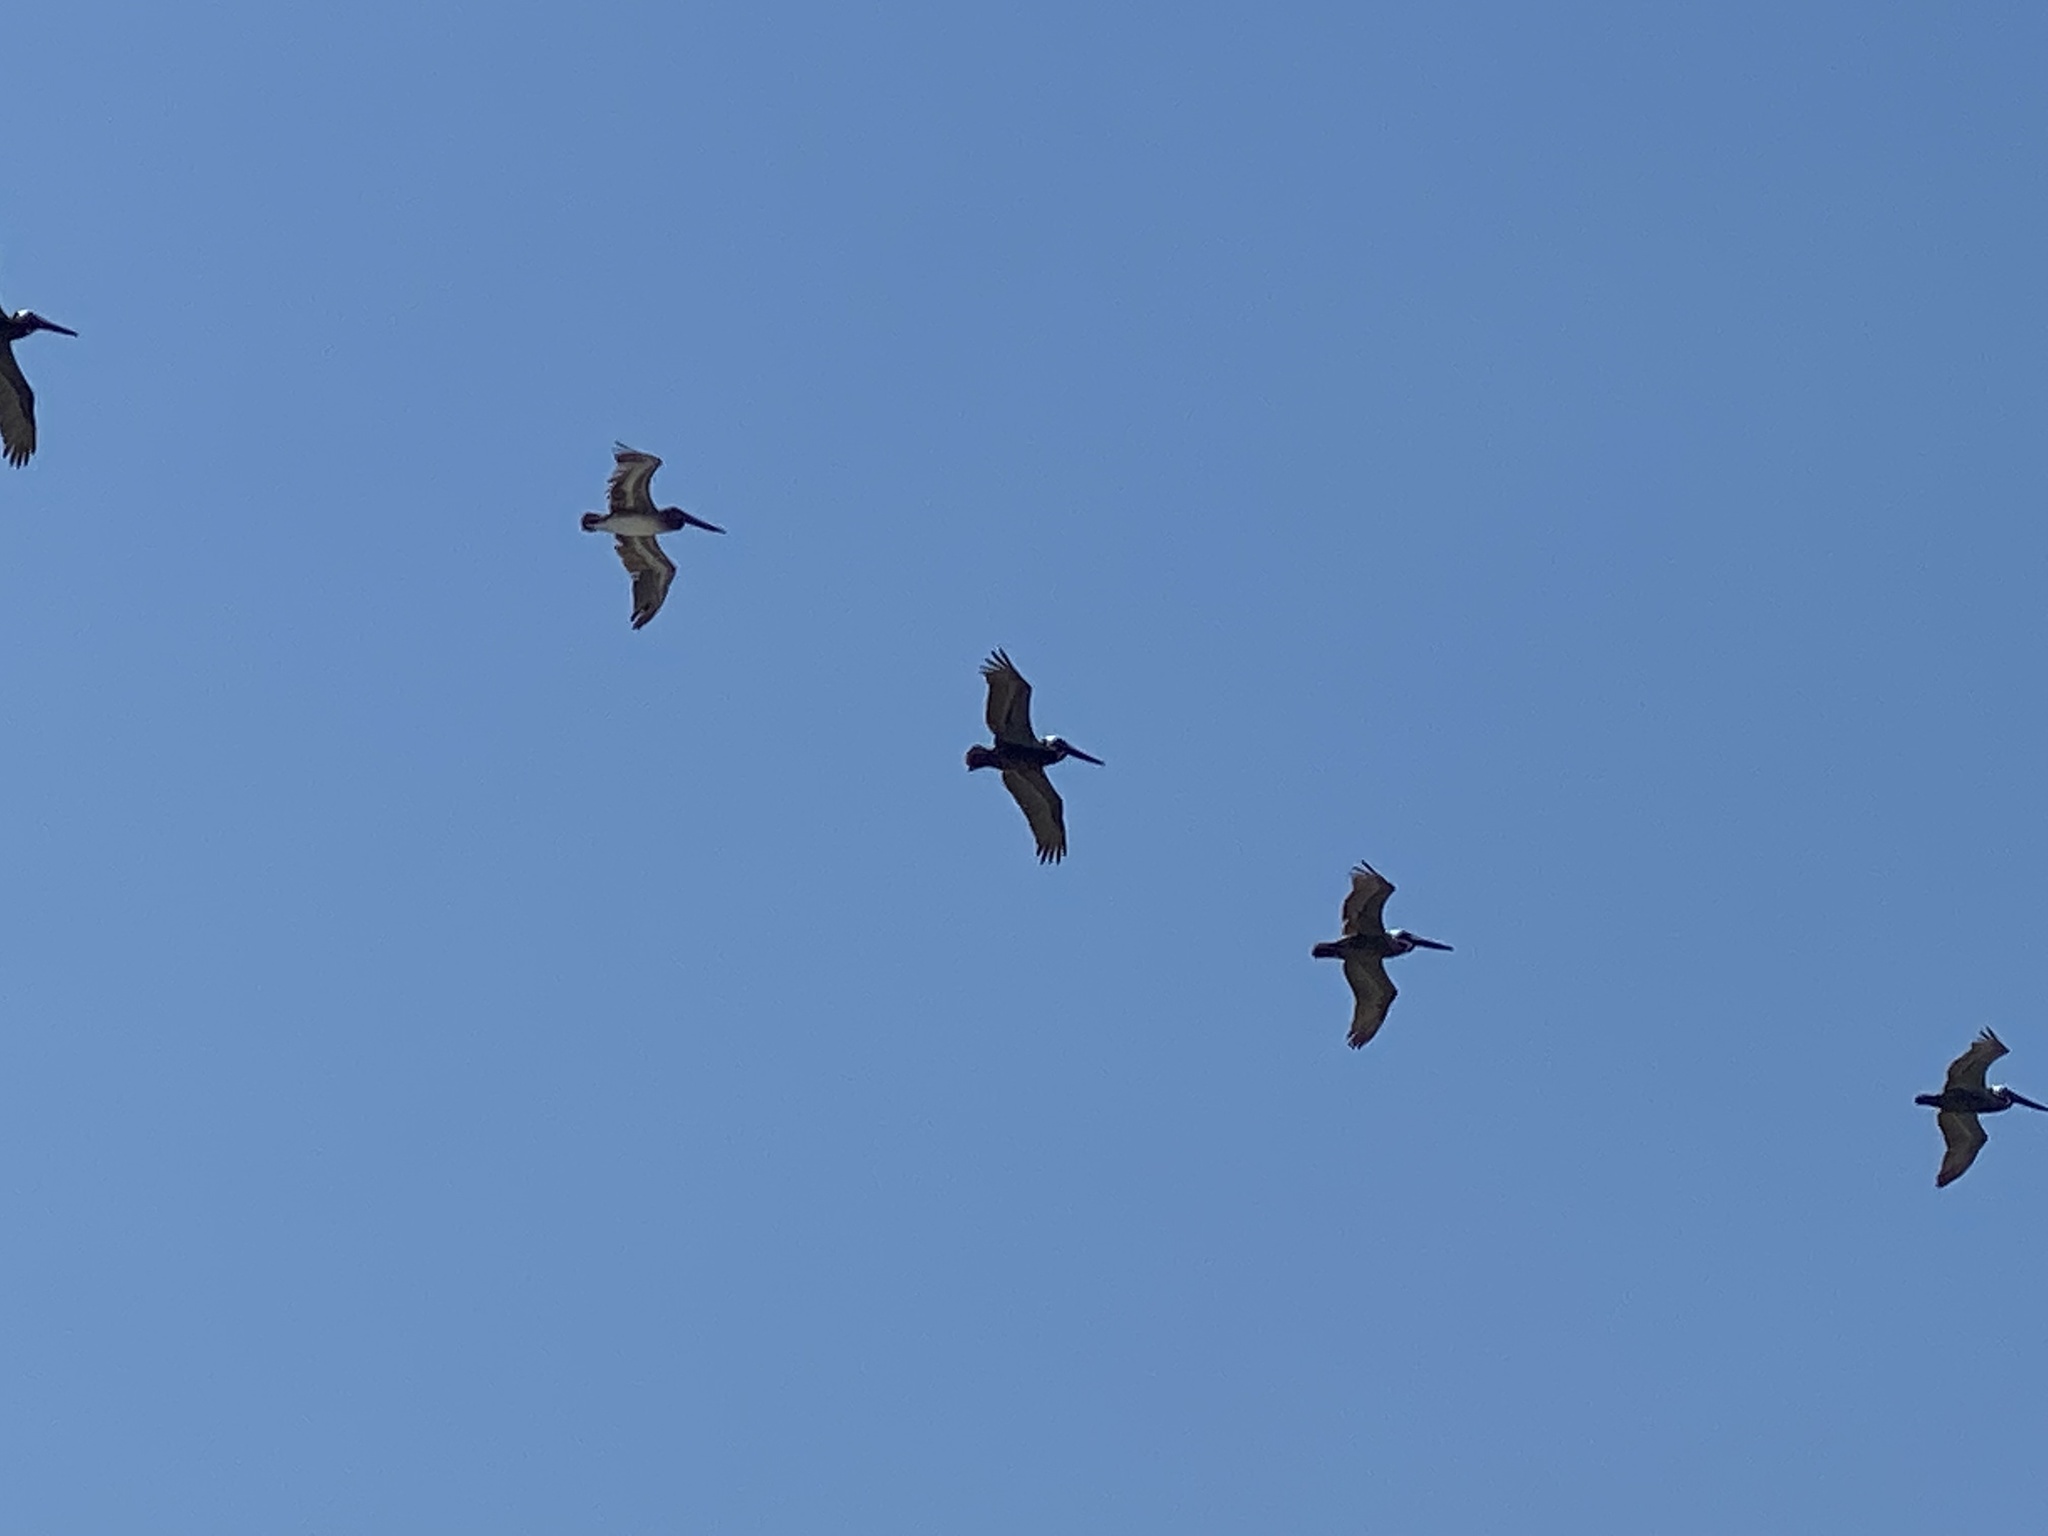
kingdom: Animalia
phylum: Chordata
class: Aves
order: Pelecaniformes
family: Pelecanidae
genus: Pelecanus
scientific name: Pelecanus occidentalis
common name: Brown pelican
